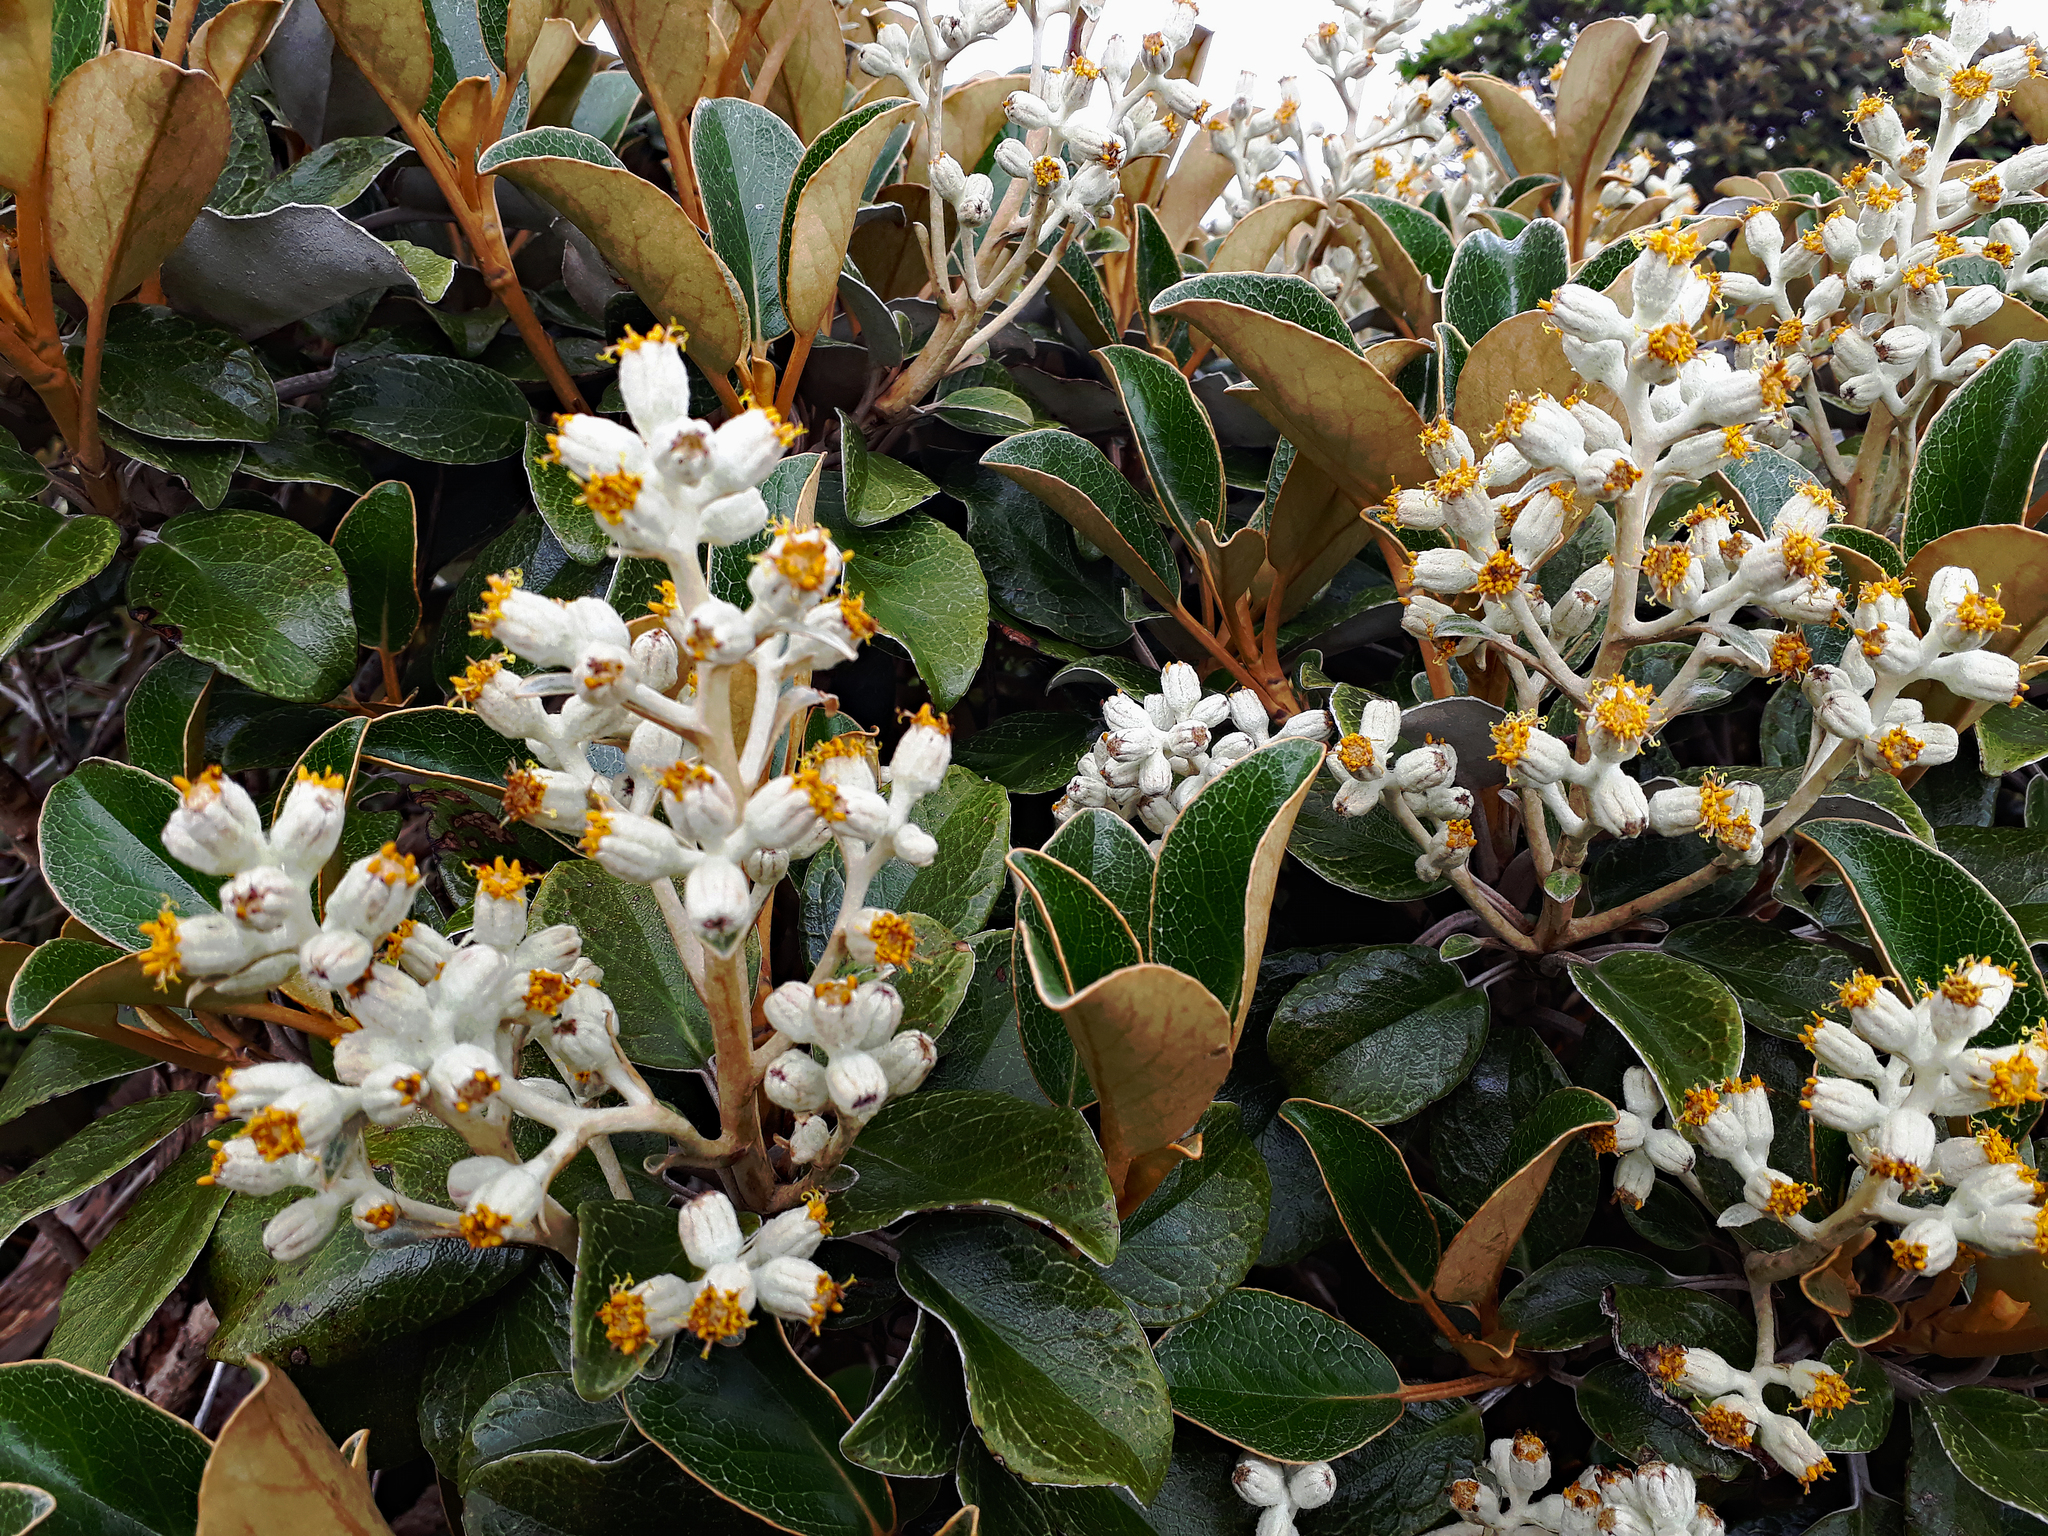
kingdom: Plantae
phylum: Tracheophyta
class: Magnoliopsida
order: Asterales
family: Asteraceae
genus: Brachyglottis
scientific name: Brachyglottis elaeagnifolia
